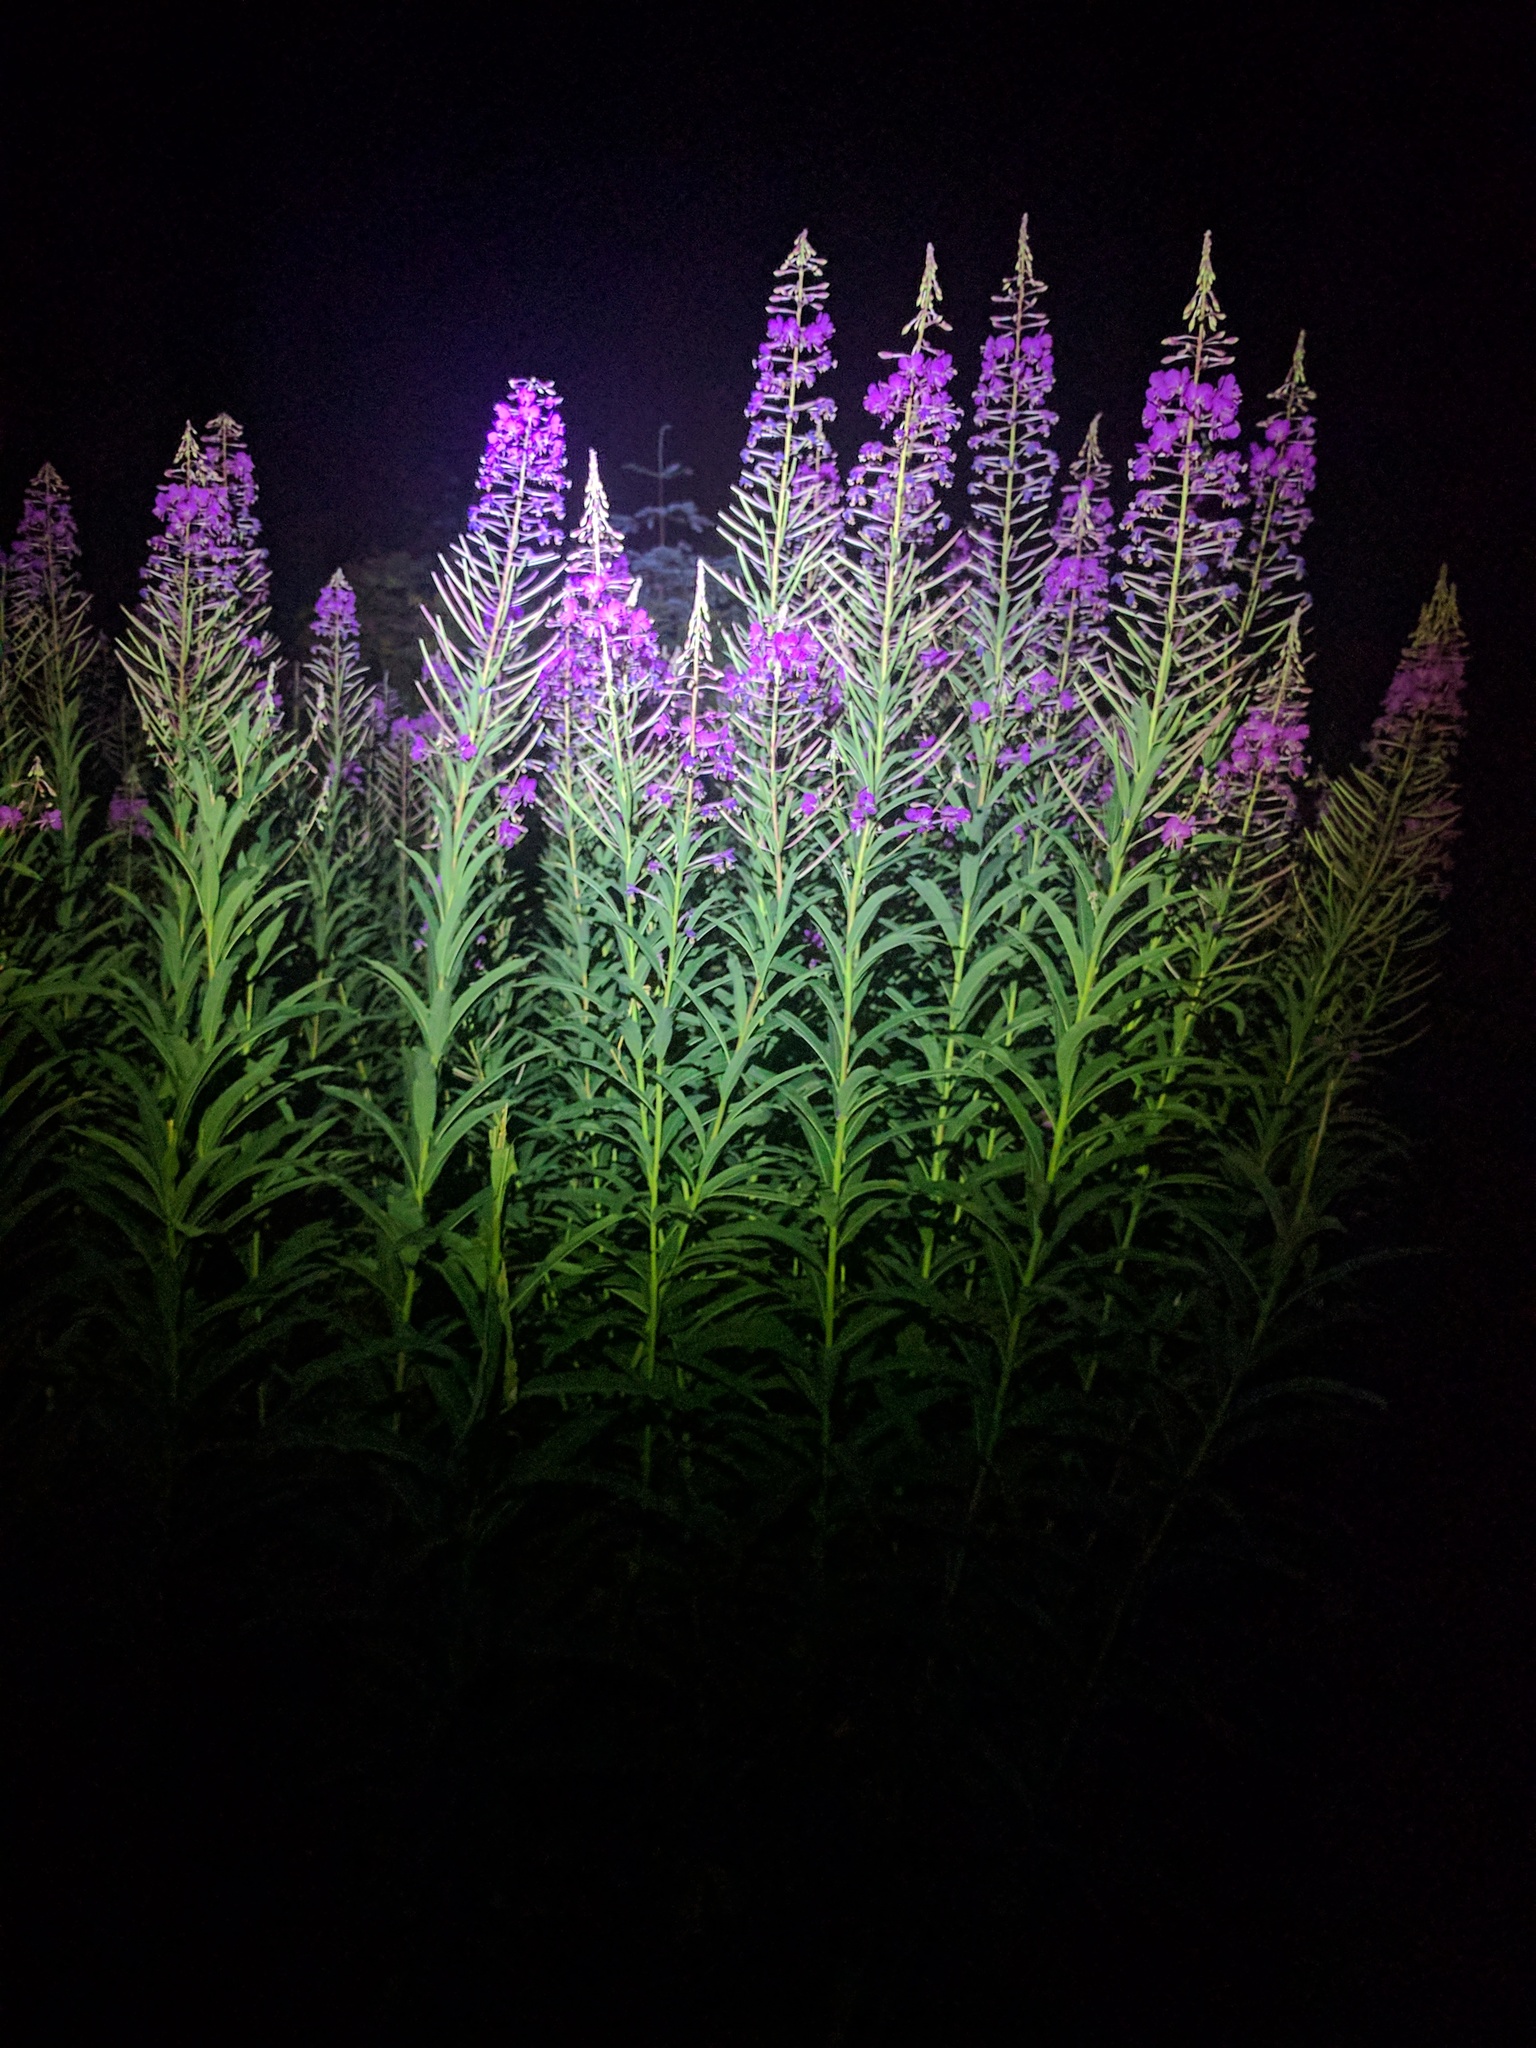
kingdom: Plantae
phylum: Tracheophyta
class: Magnoliopsida
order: Myrtales
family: Onagraceae
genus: Chamaenerion
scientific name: Chamaenerion angustifolium
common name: Fireweed
